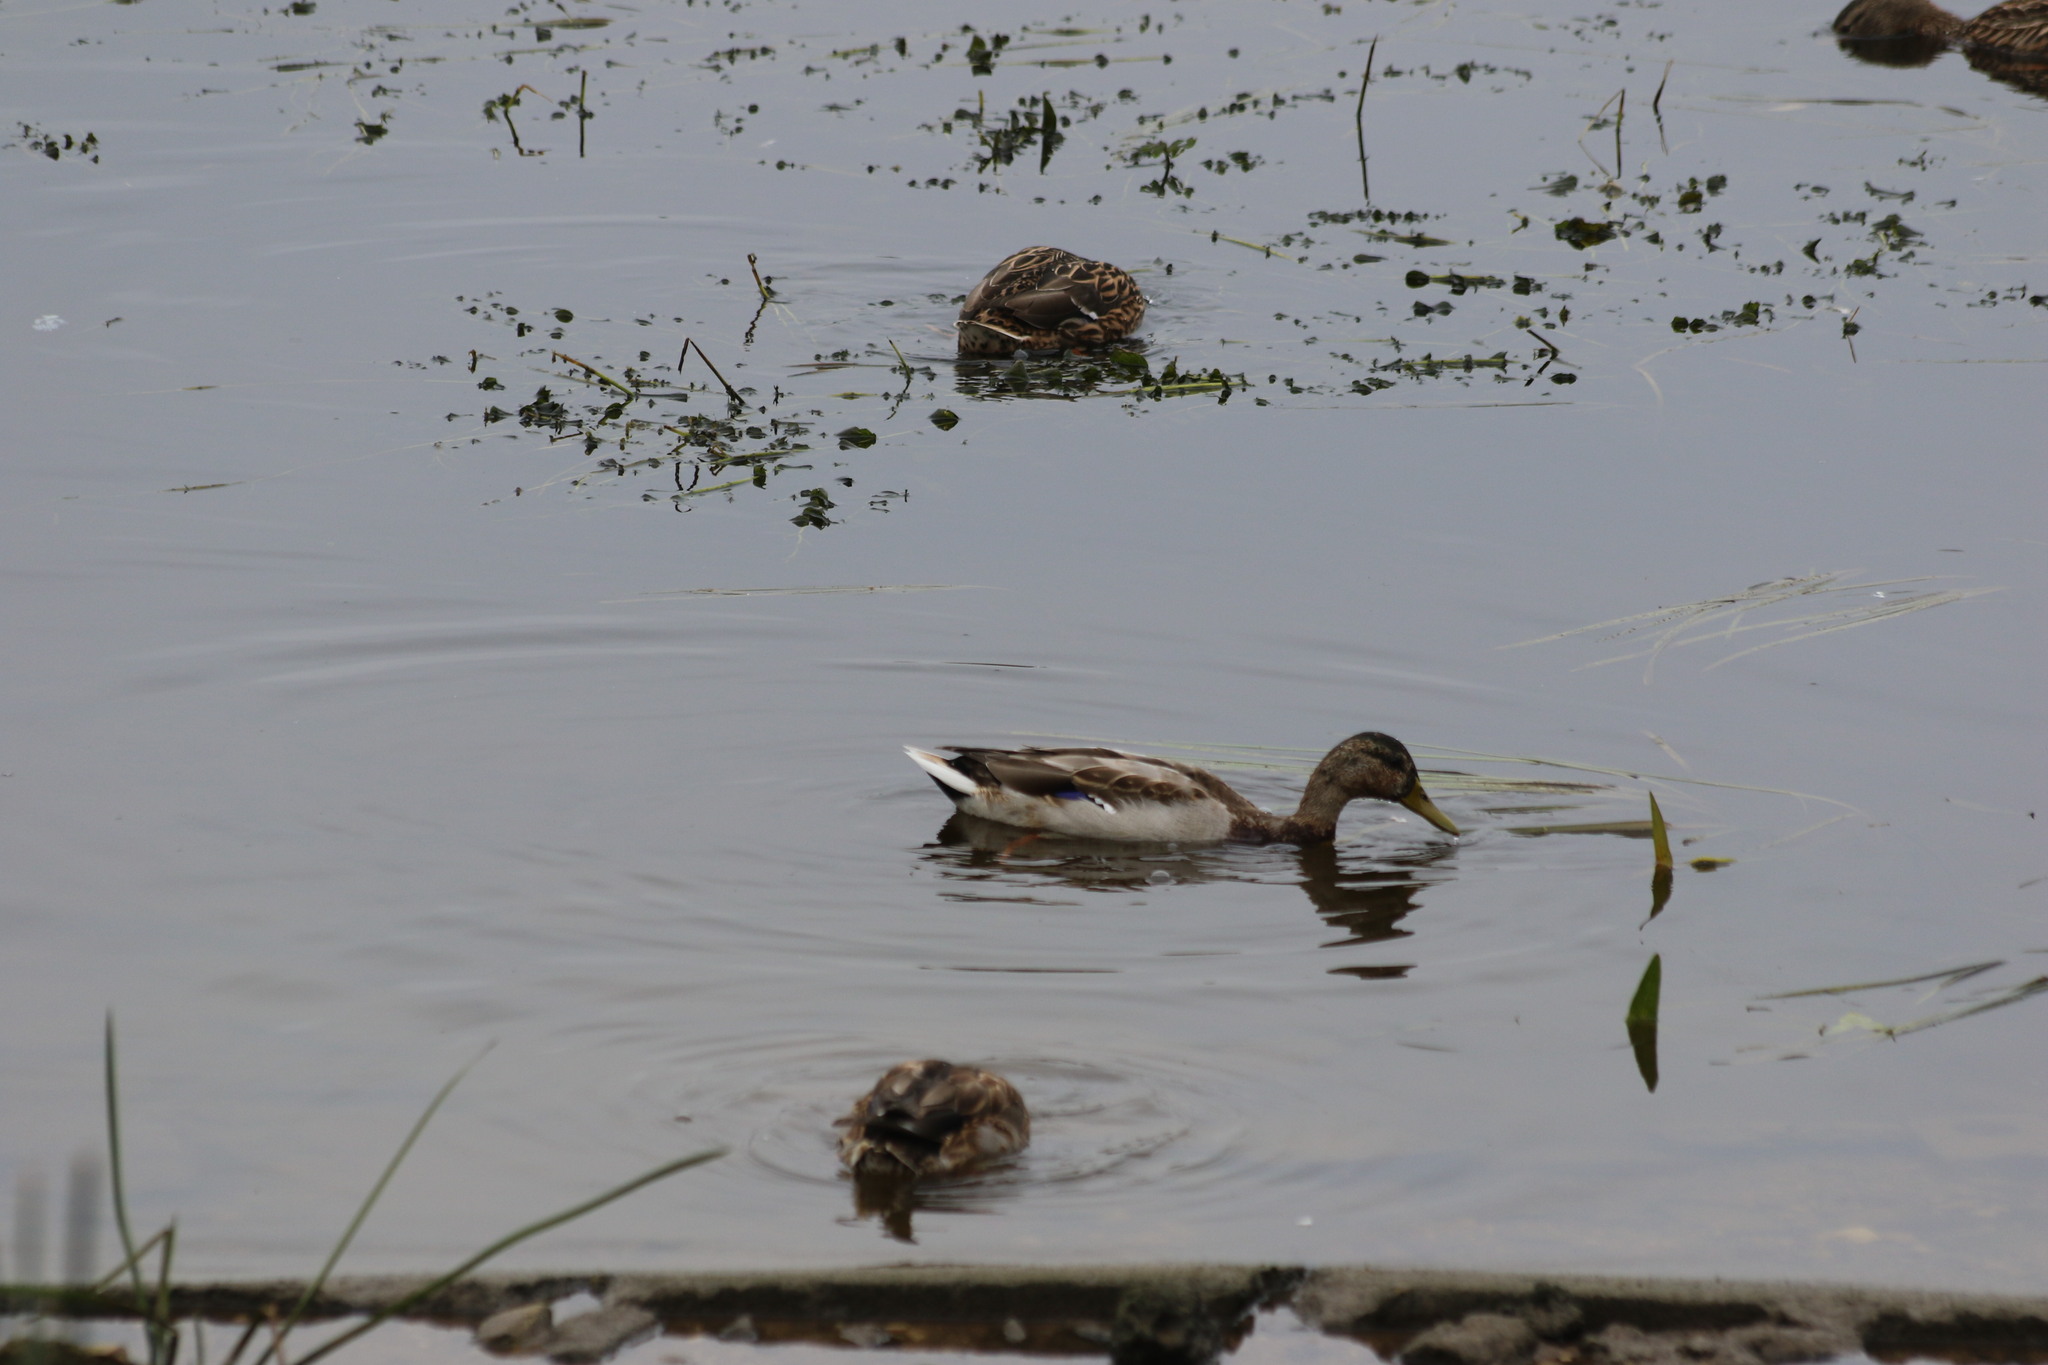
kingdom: Animalia
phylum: Chordata
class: Aves
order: Anseriformes
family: Anatidae
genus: Anas
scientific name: Anas platyrhynchos
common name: Mallard
